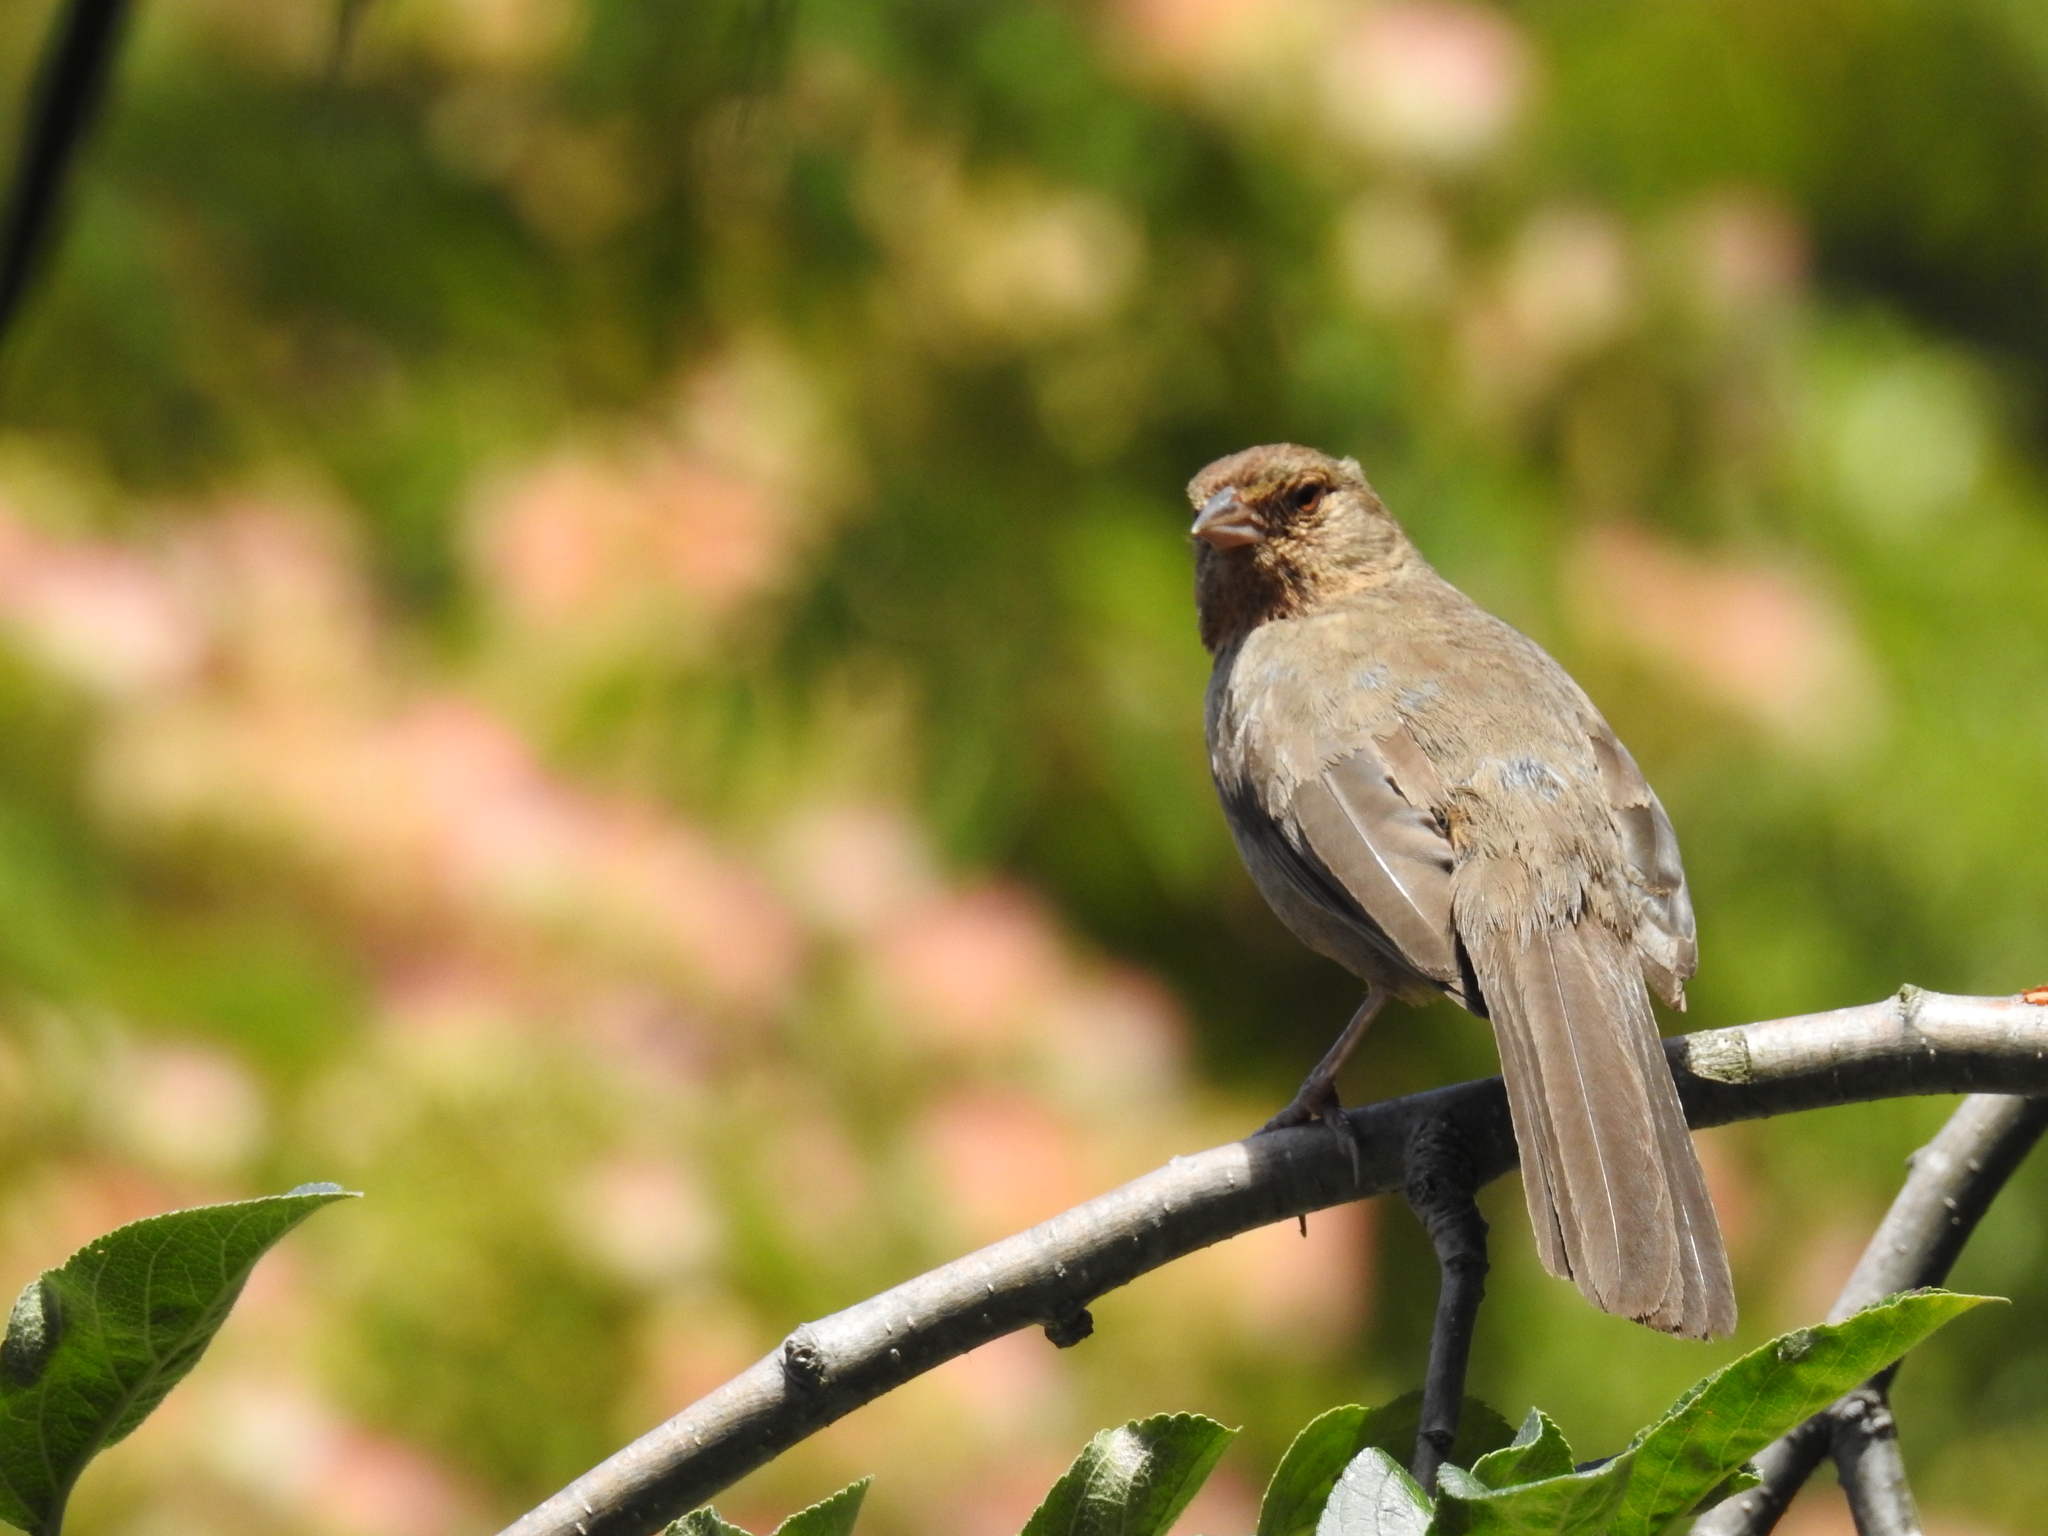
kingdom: Animalia
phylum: Chordata
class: Aves
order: Passeriformes
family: Passerellidae
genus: Melozone
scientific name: Melozone crissalis
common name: California towhee
